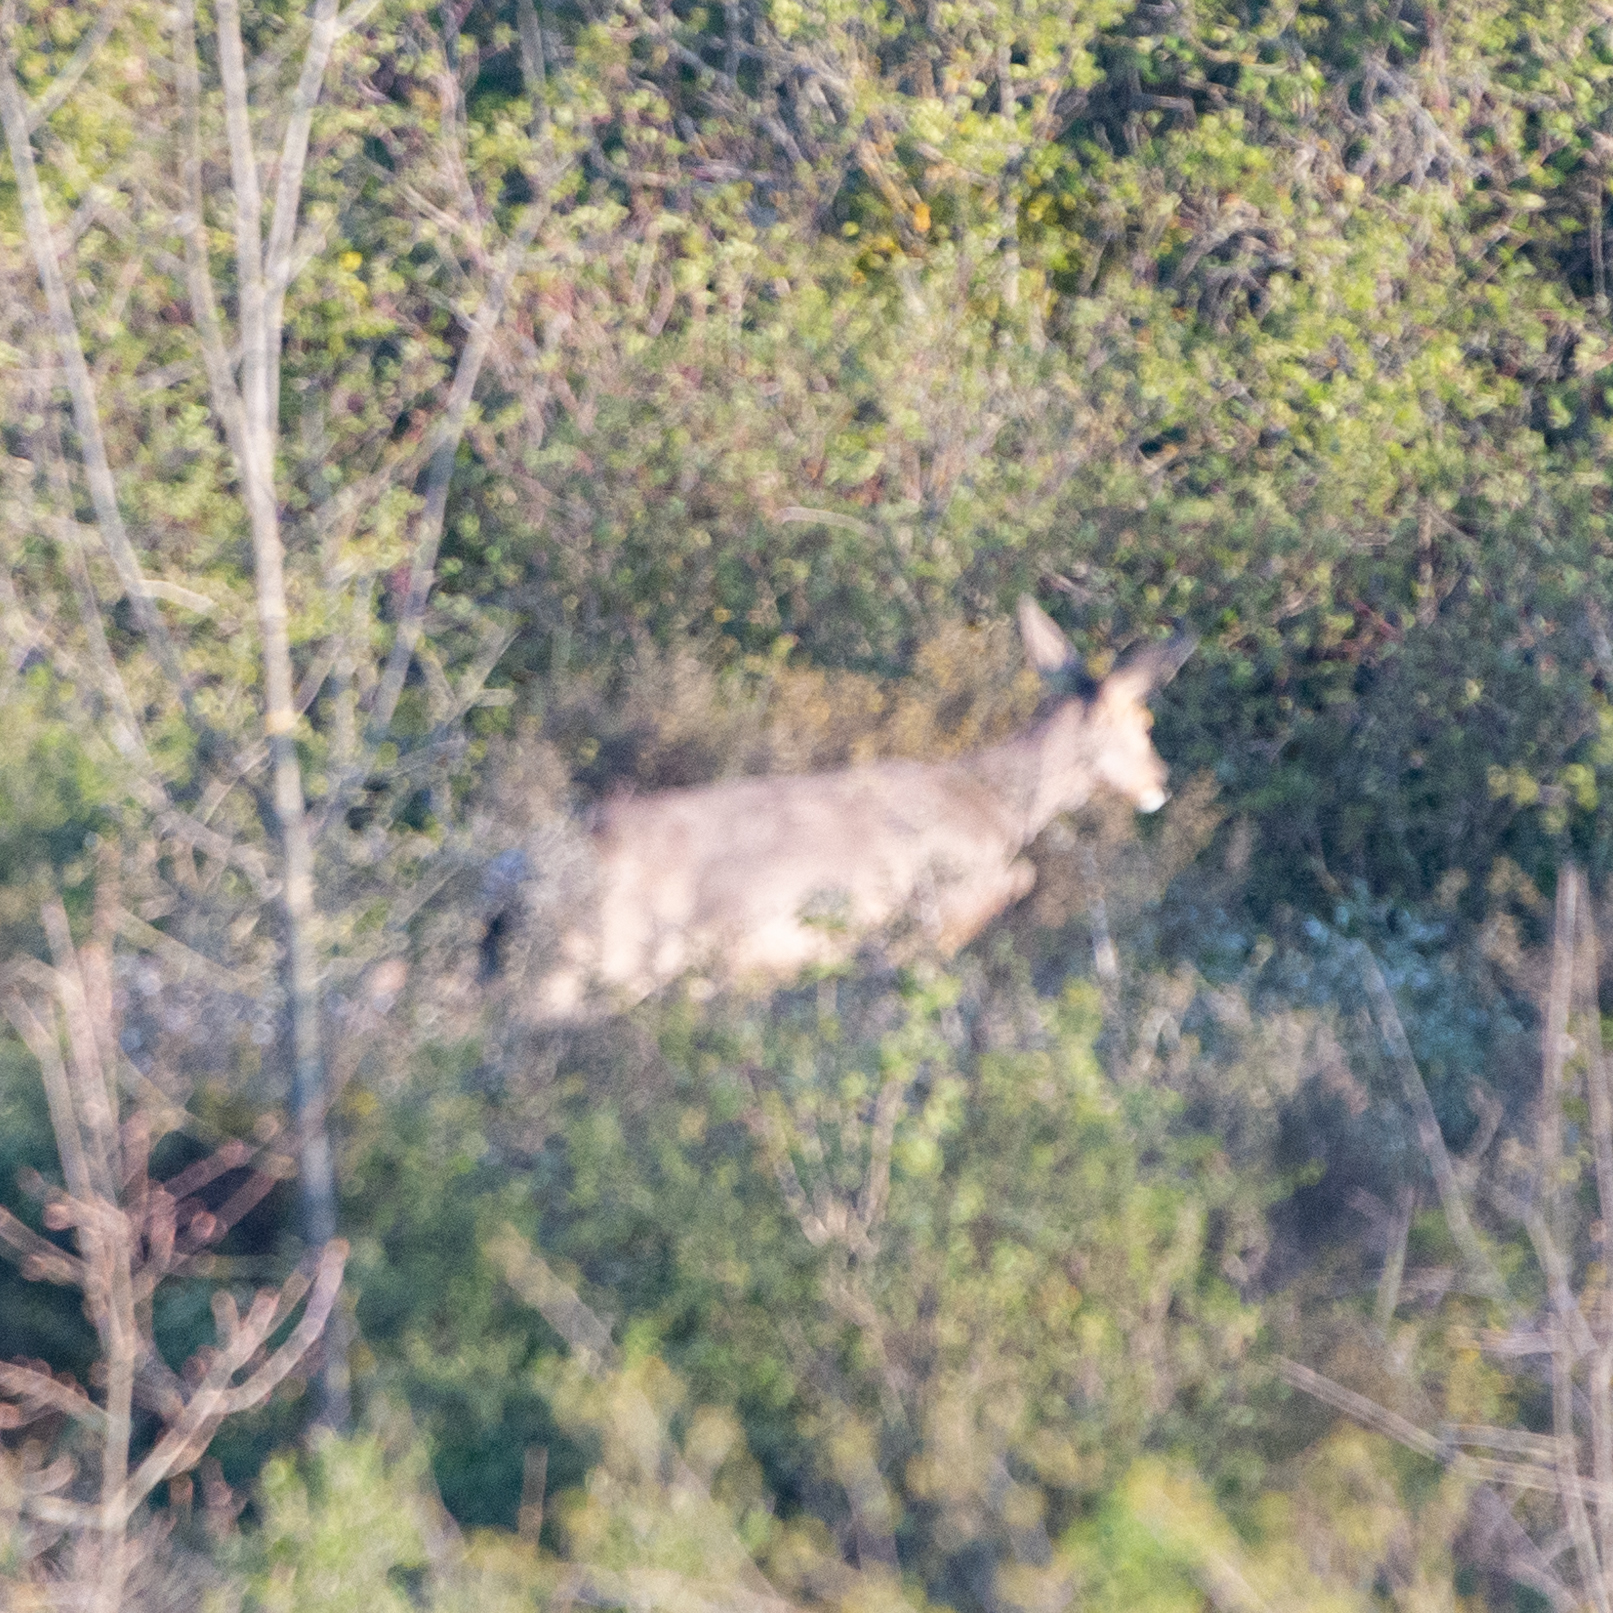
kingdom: Animalia
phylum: Chordata
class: Mammalia
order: Artiodactyla
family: Cervidae
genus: Capreolus
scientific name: Capreolus capreolus
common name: Western roe deer
